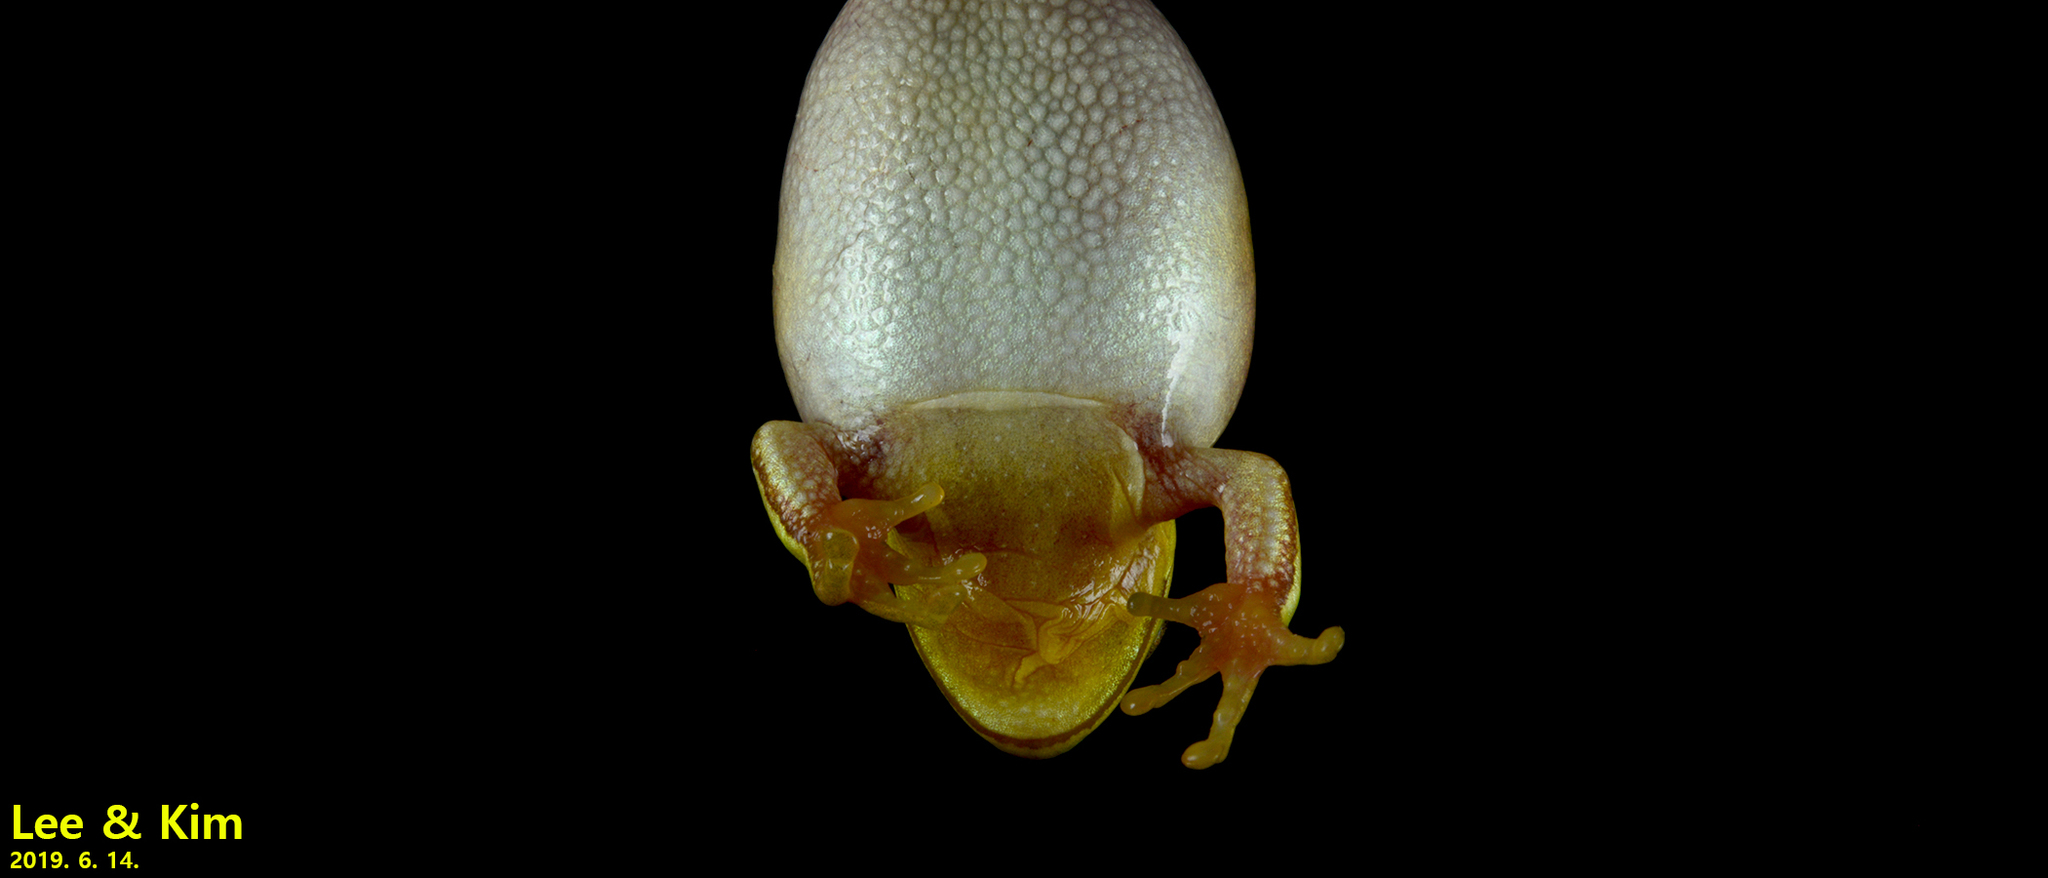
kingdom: Animalia
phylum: Chordata
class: Amphibia
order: Anura
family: Hylidae
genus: Dryophytes
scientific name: Dryophytes immaculatus
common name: North china treefrog
